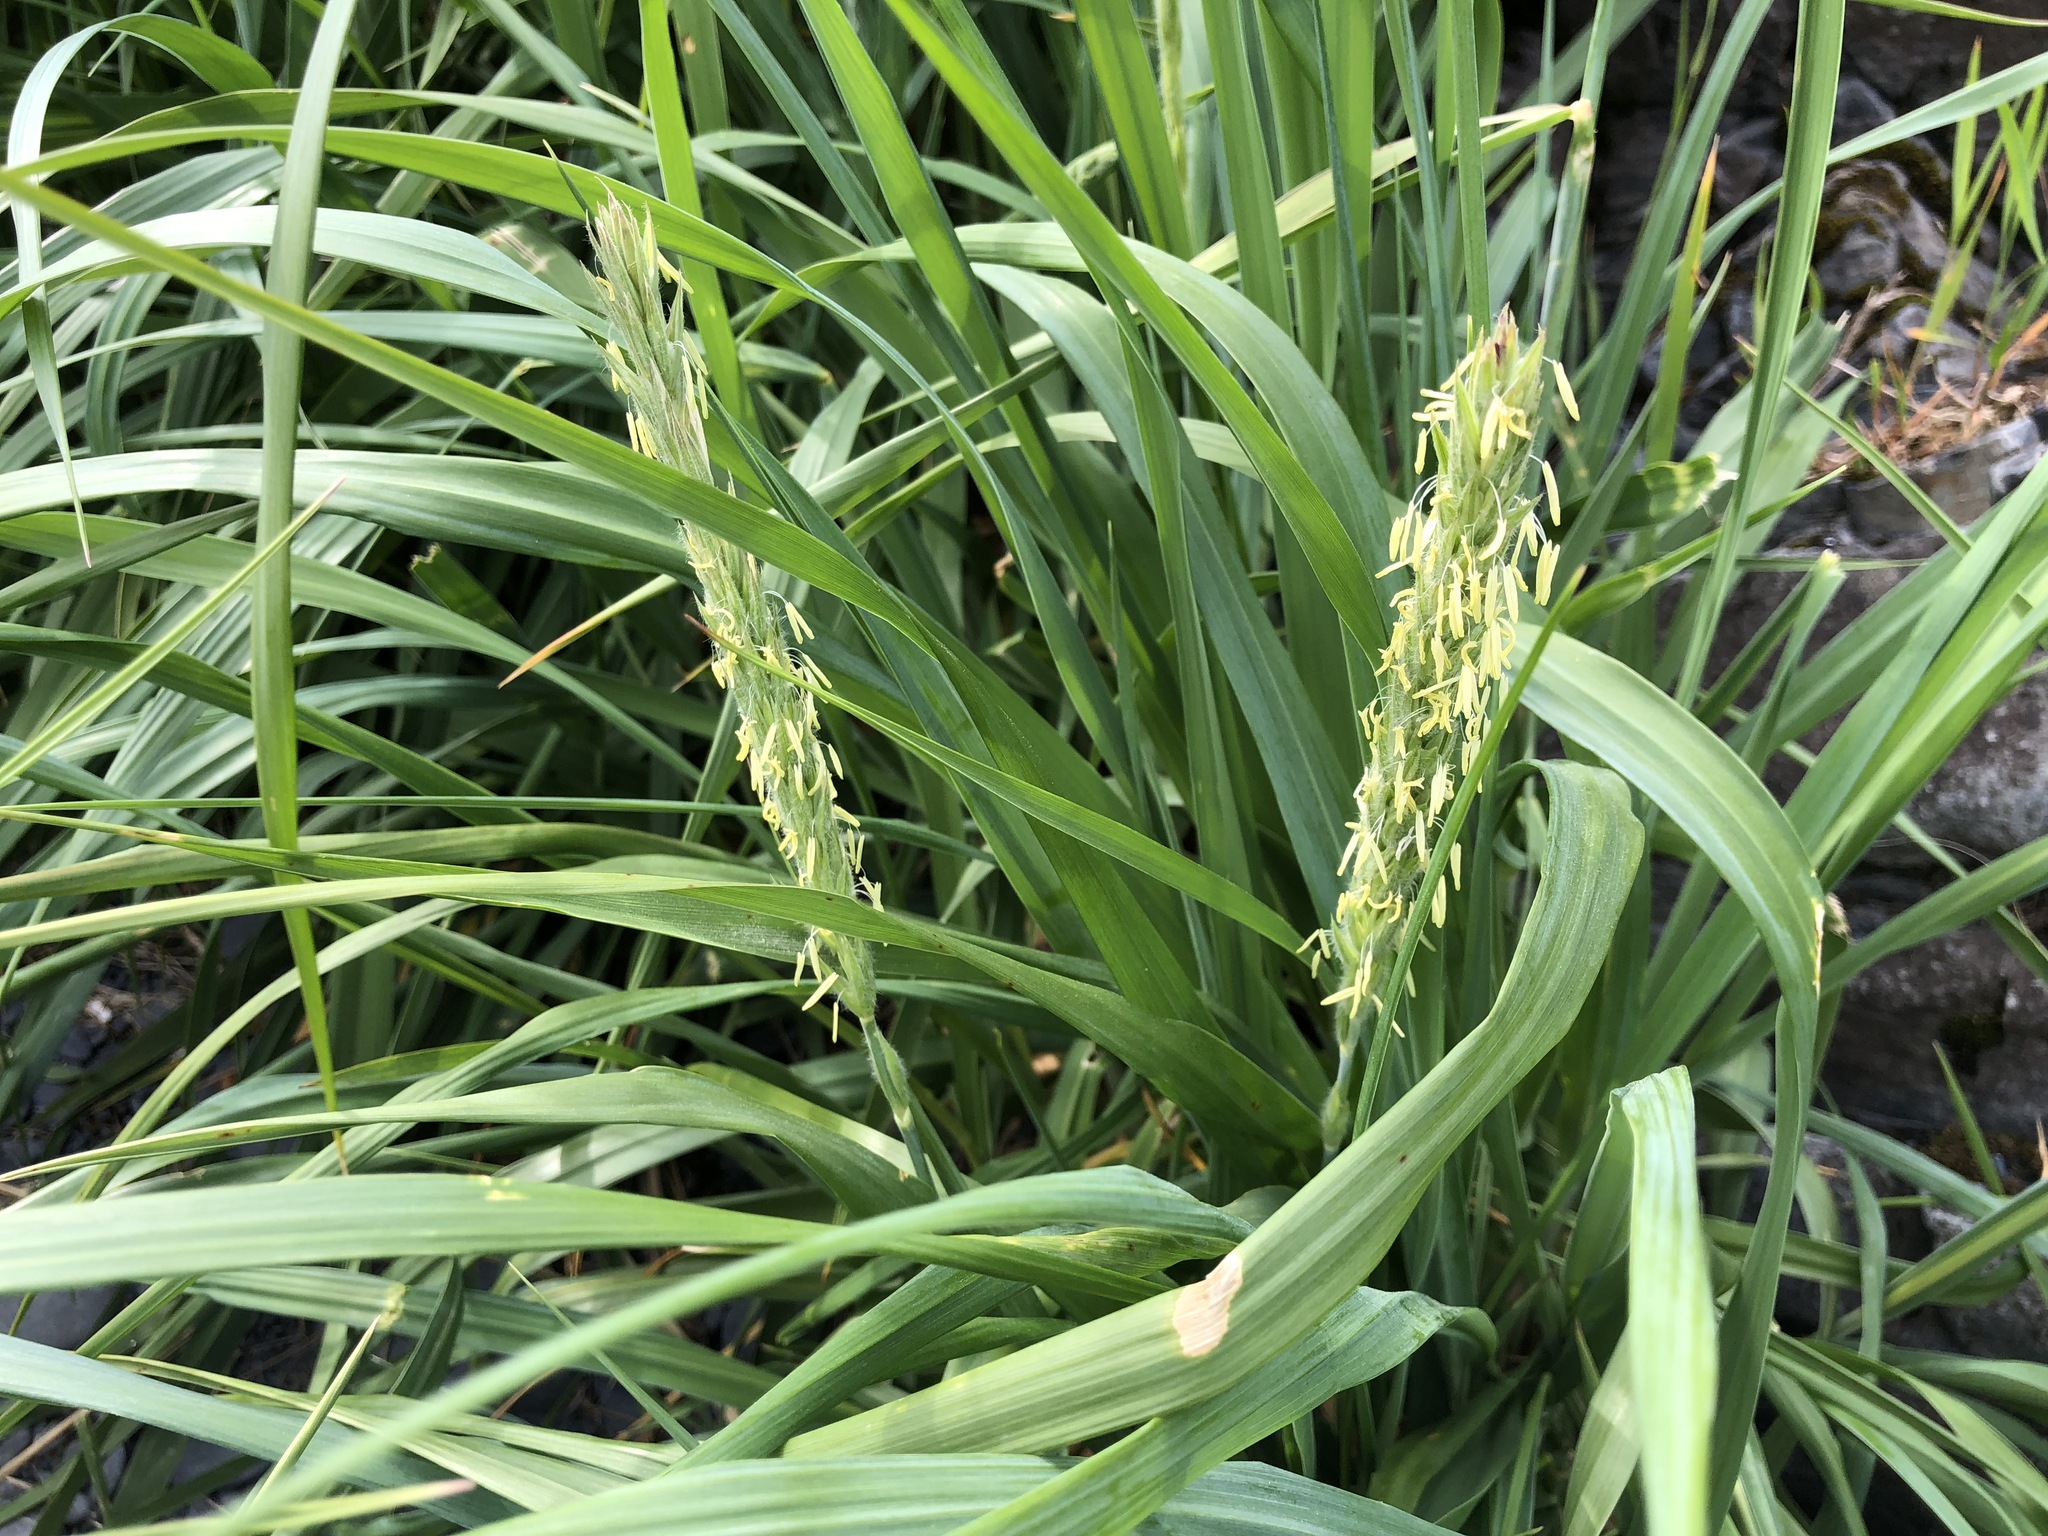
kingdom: Plantae
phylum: Tracheophyta
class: Liliopsida
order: Poales
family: Poaceae
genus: Leymus
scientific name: Leymus mollis
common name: American dune grass
